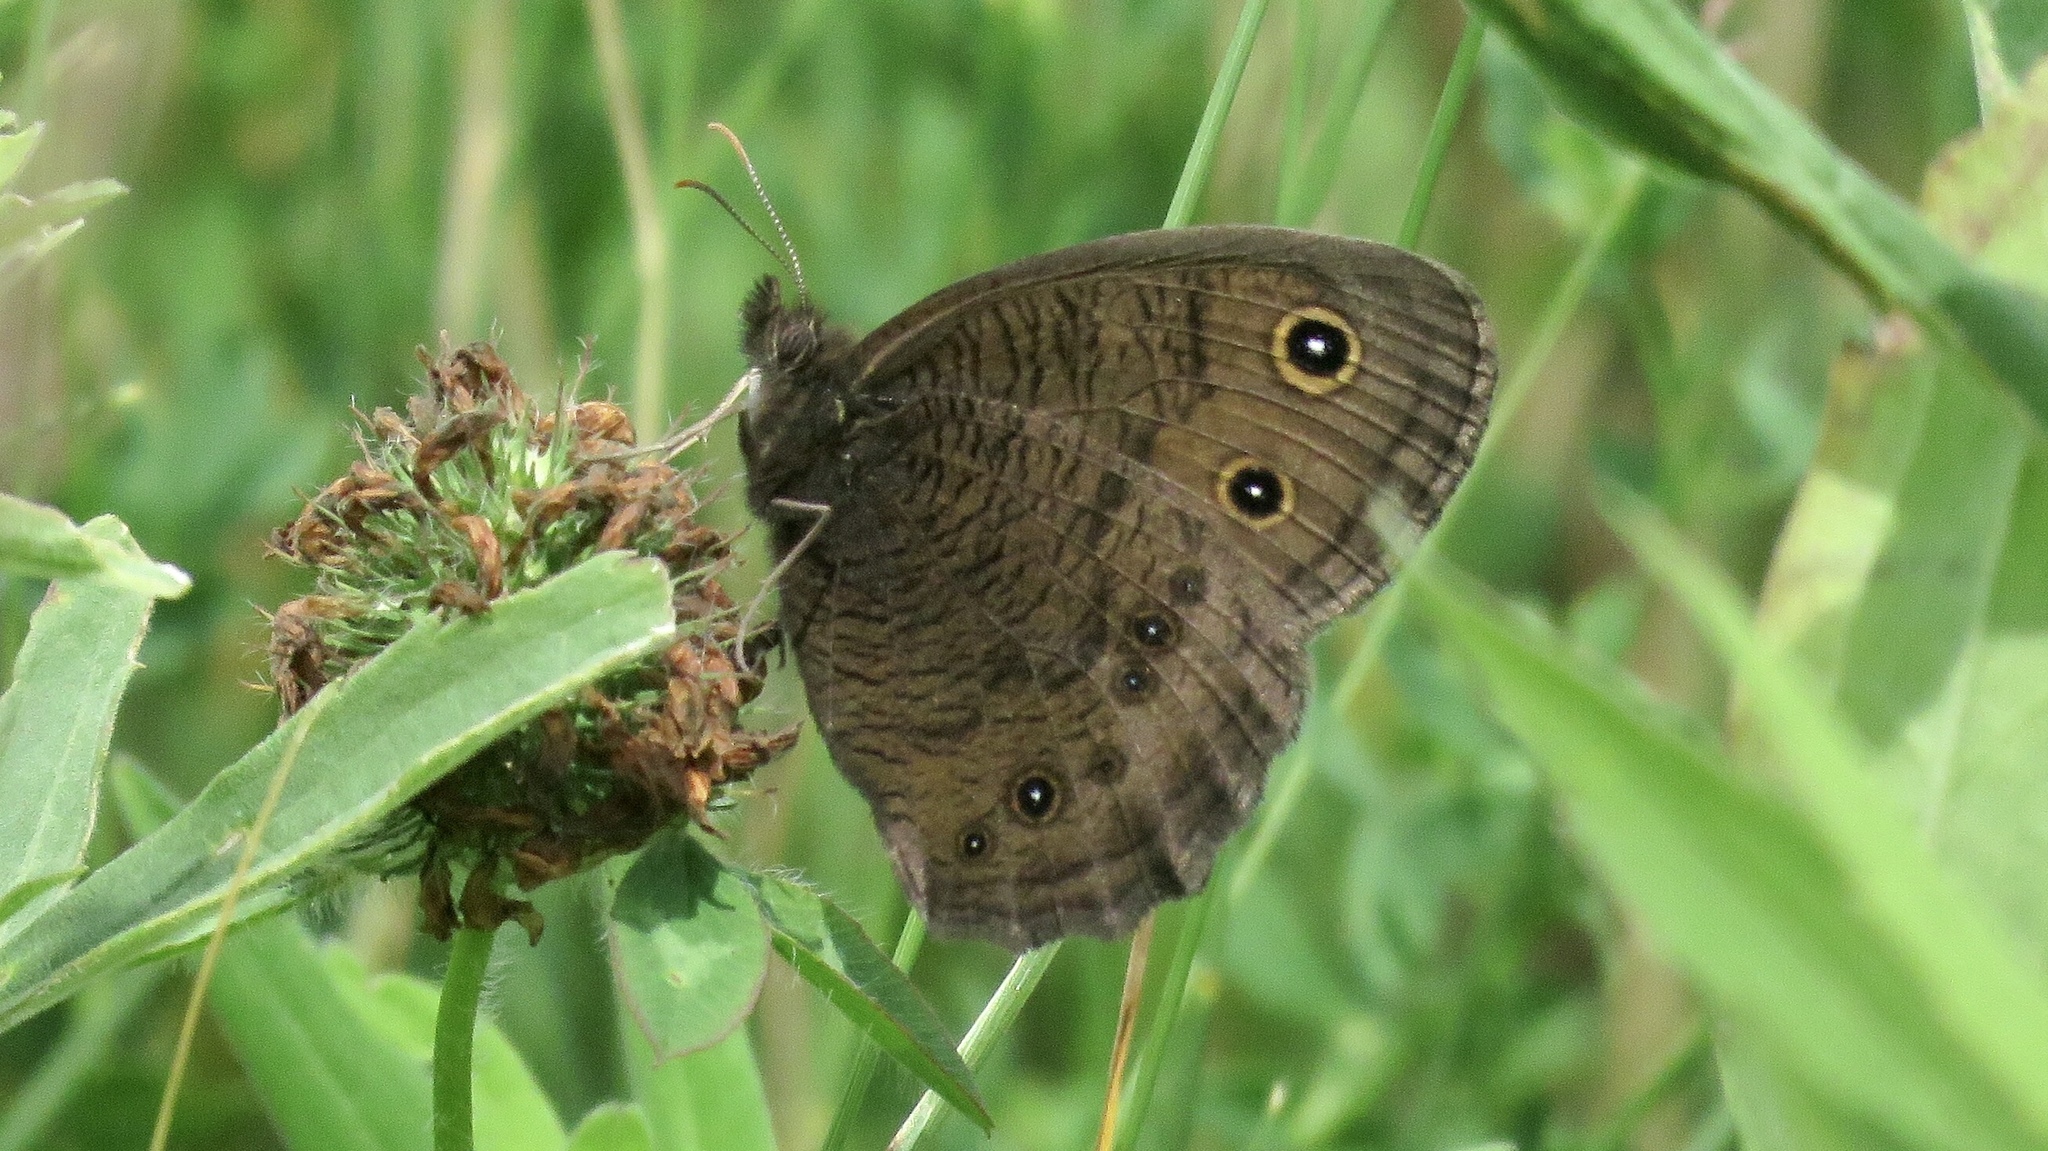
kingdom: Animalia
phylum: Arthropoda
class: Insecta
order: Lepidoptera
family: Nymphalidae
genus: Cercyonis
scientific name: Cercyonis pegala
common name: Common wood-nymph
